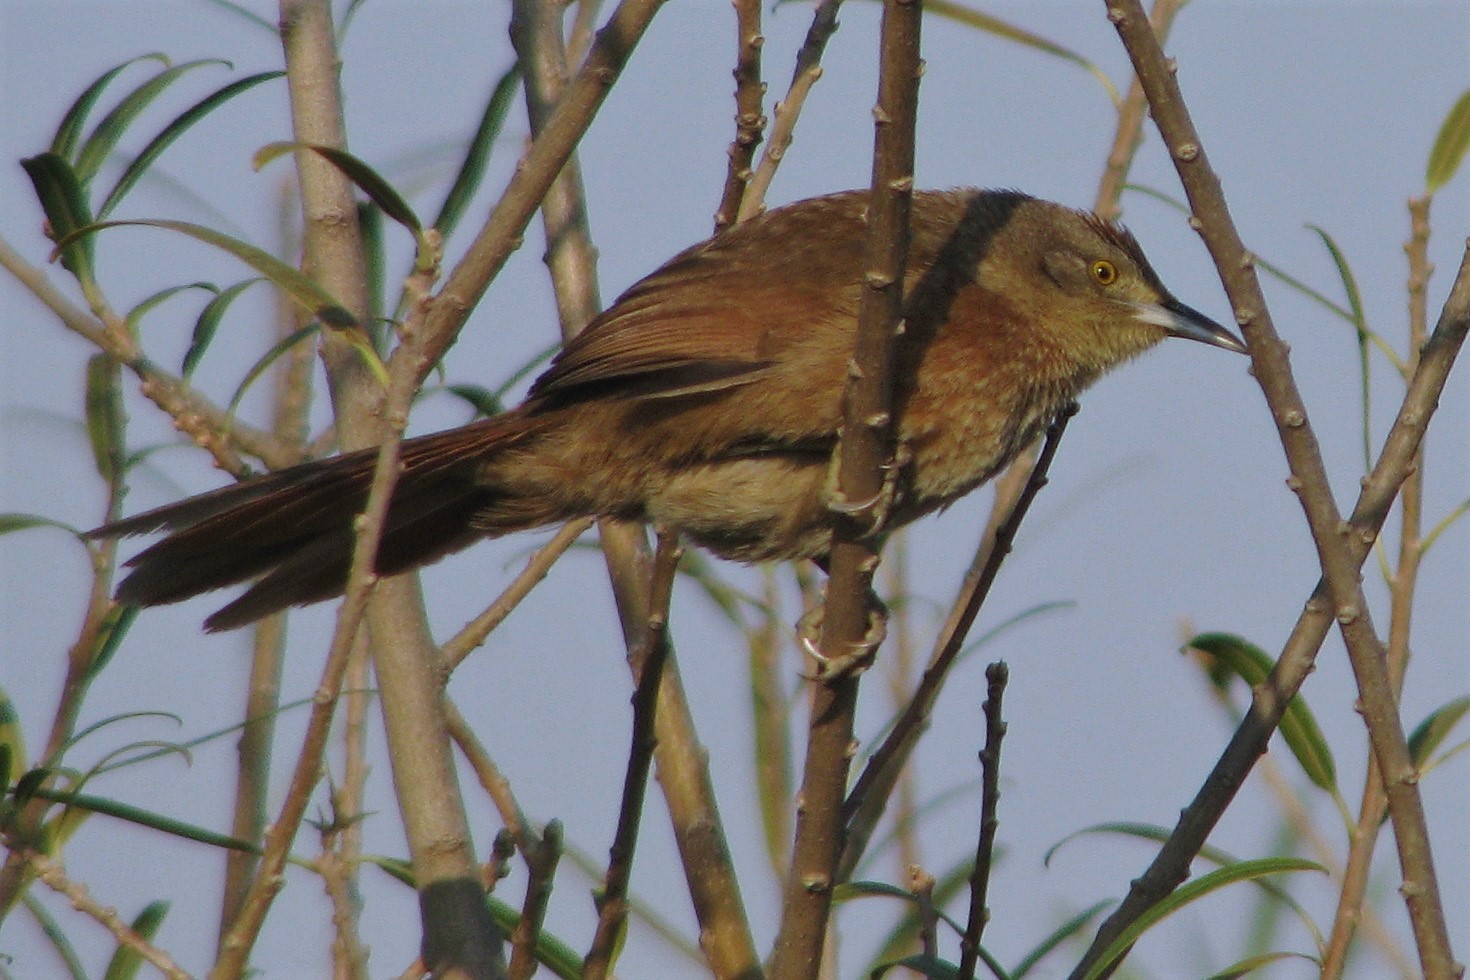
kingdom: Animalia
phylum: Chordata
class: Aves
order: Passeriformes
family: Furnariidae
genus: Phacellodomus
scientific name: Phacellodomus striaticollis
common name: Freckle-breasted thornbird
